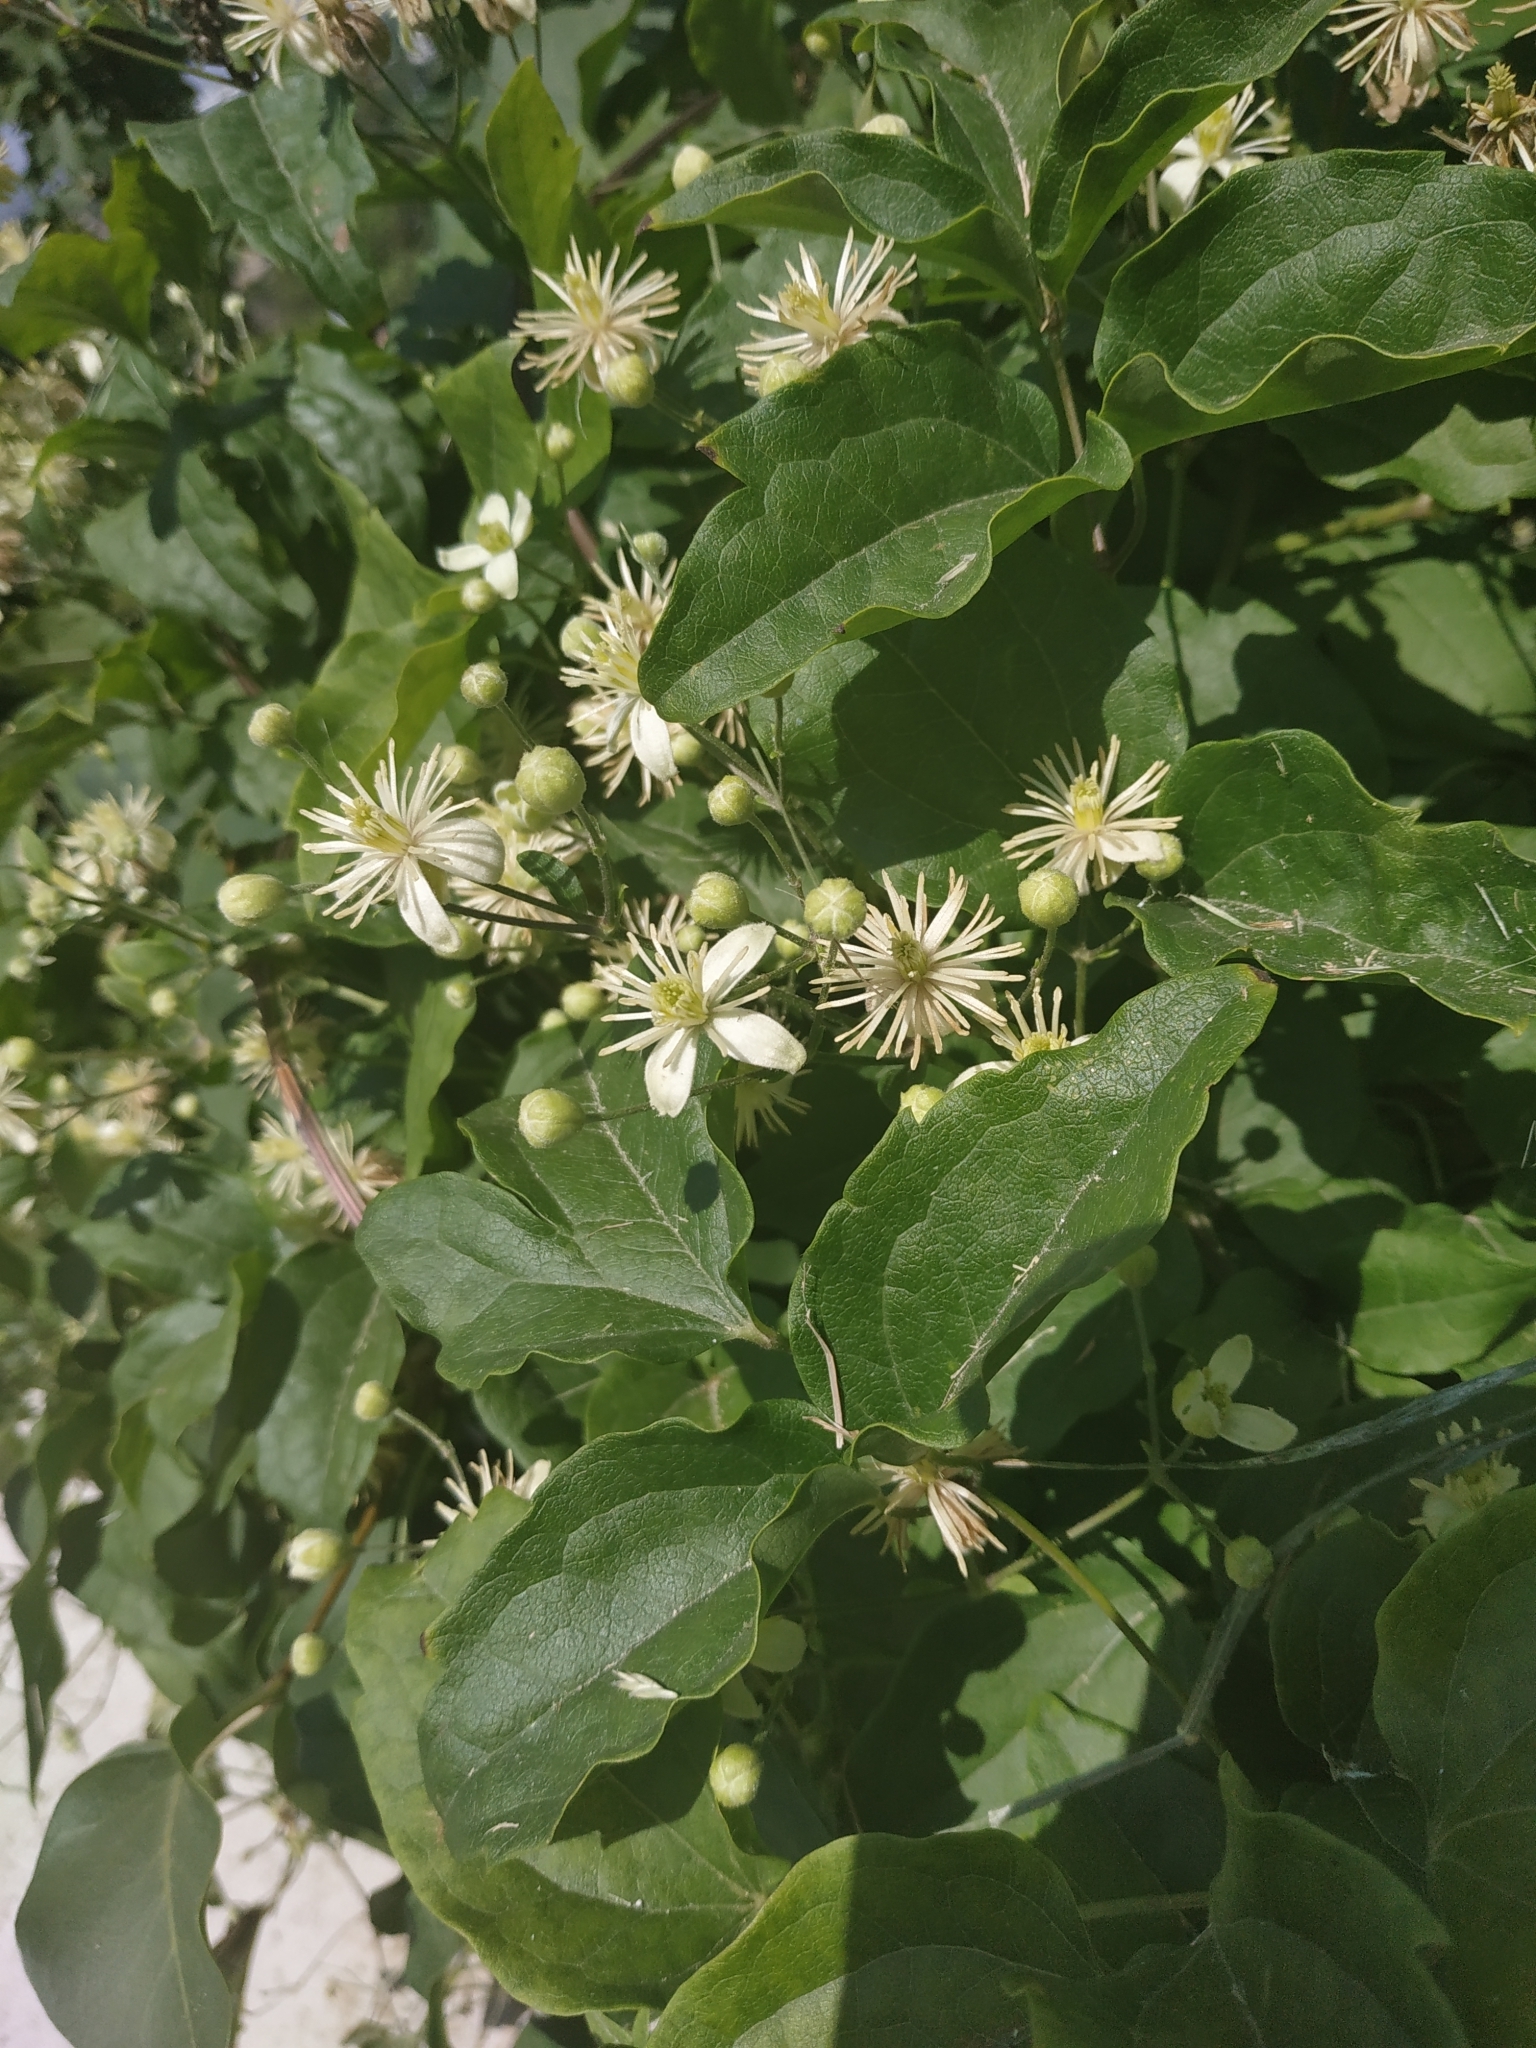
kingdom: Plantae
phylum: Tracheophyta
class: Magnoliopsida
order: Ranunculales
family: Ranunculaceae
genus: Clematis
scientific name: Clematis vitalba
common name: Evergreen clematis
